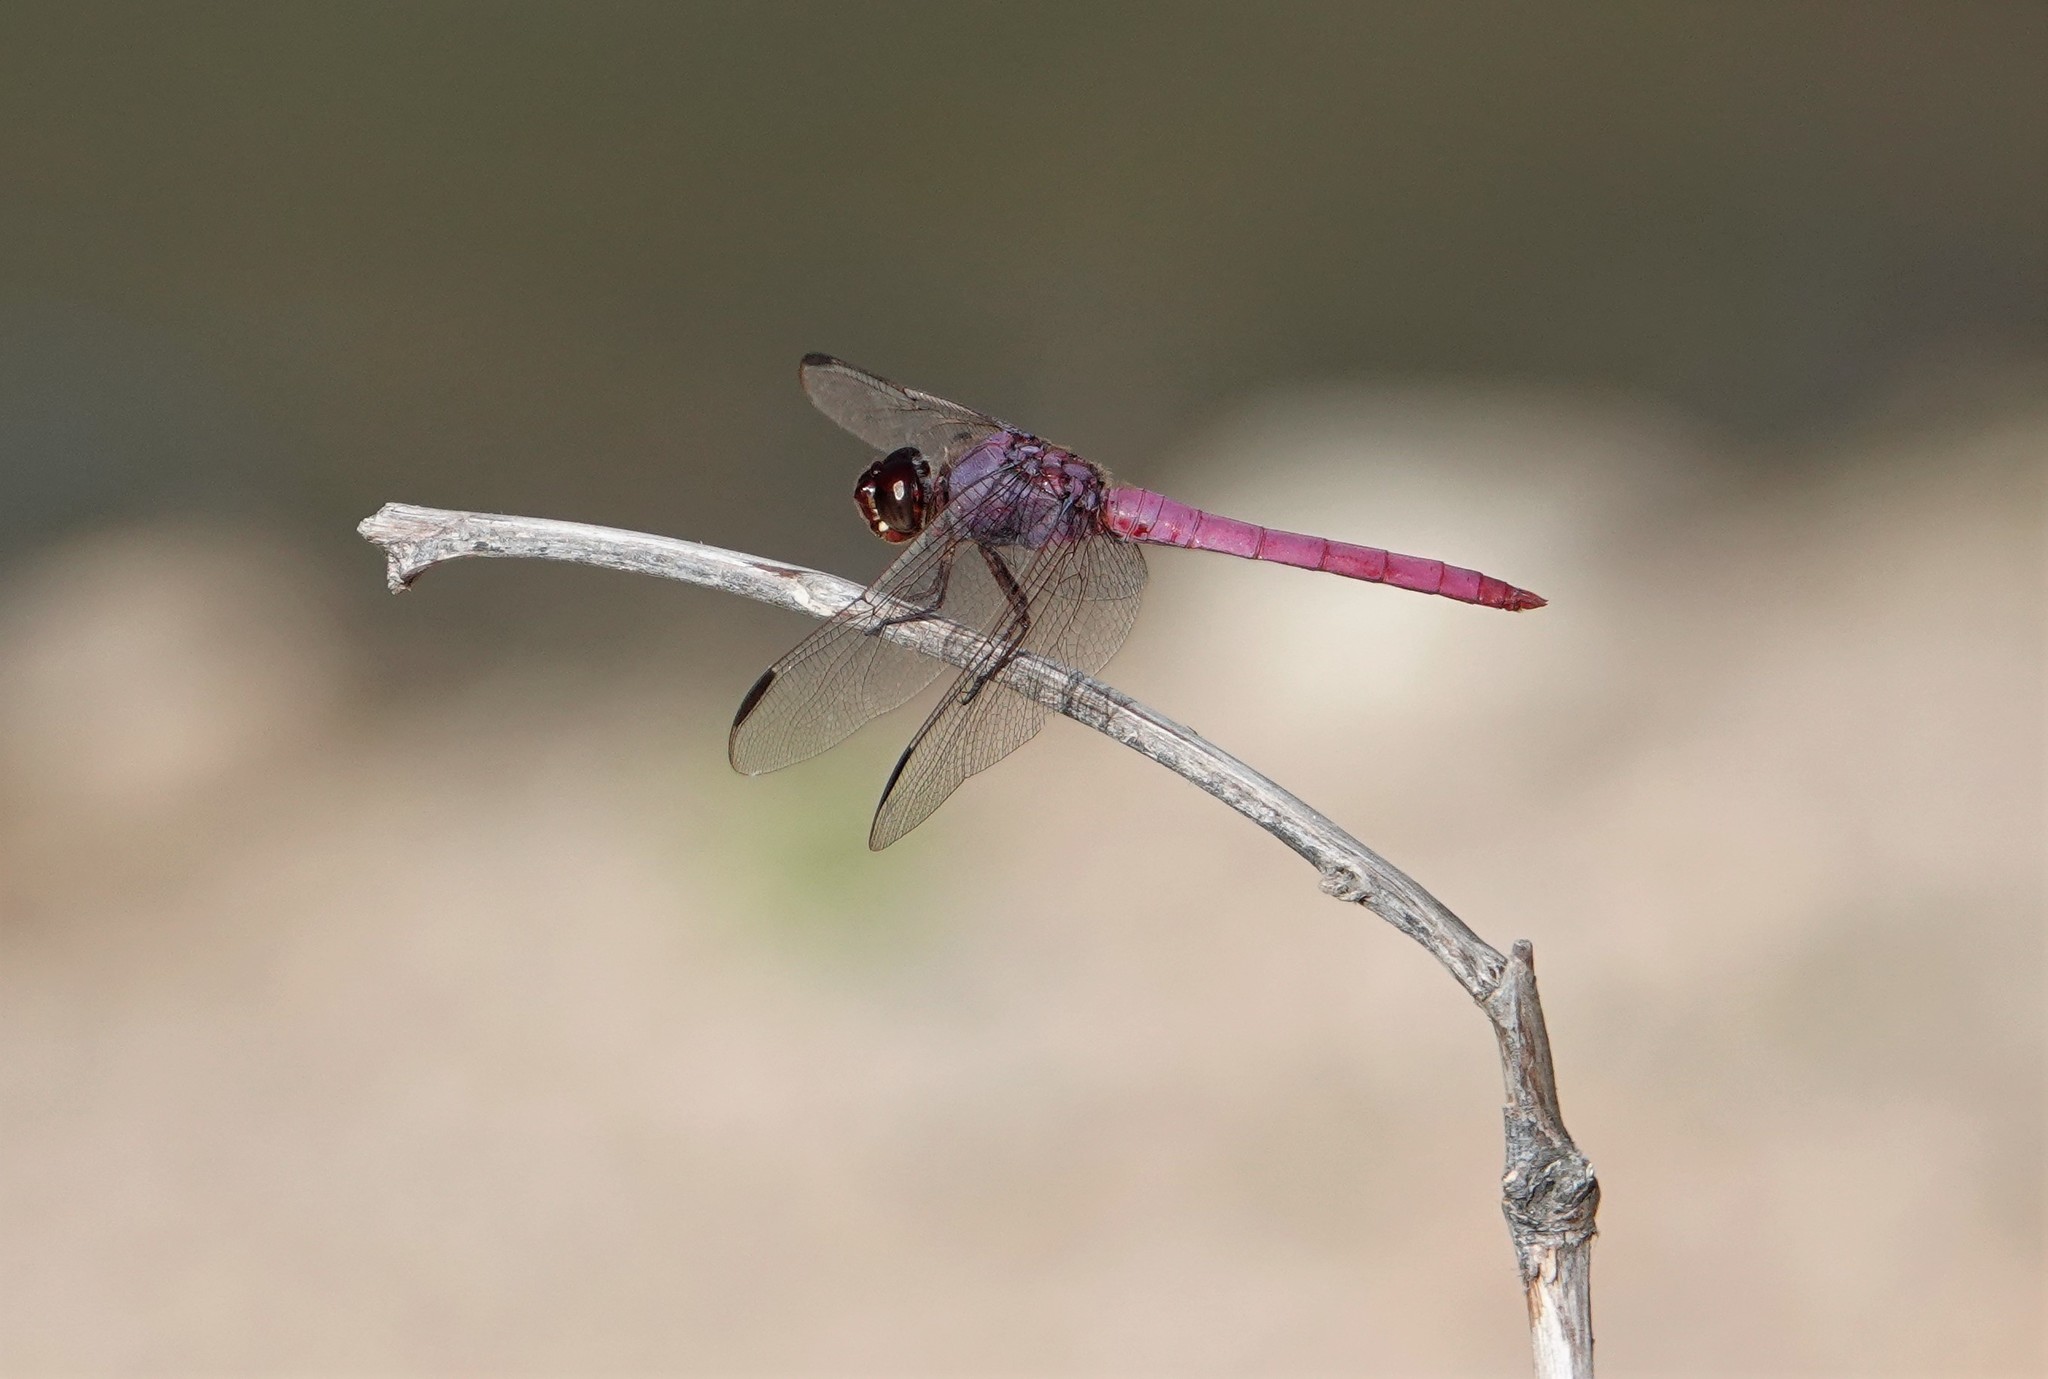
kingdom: Animalia
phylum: Arthropoda
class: Insecta
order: Odonata
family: Libellulidae
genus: Orthemis
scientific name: Orthemis ferruginea
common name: Roseate skimmer
